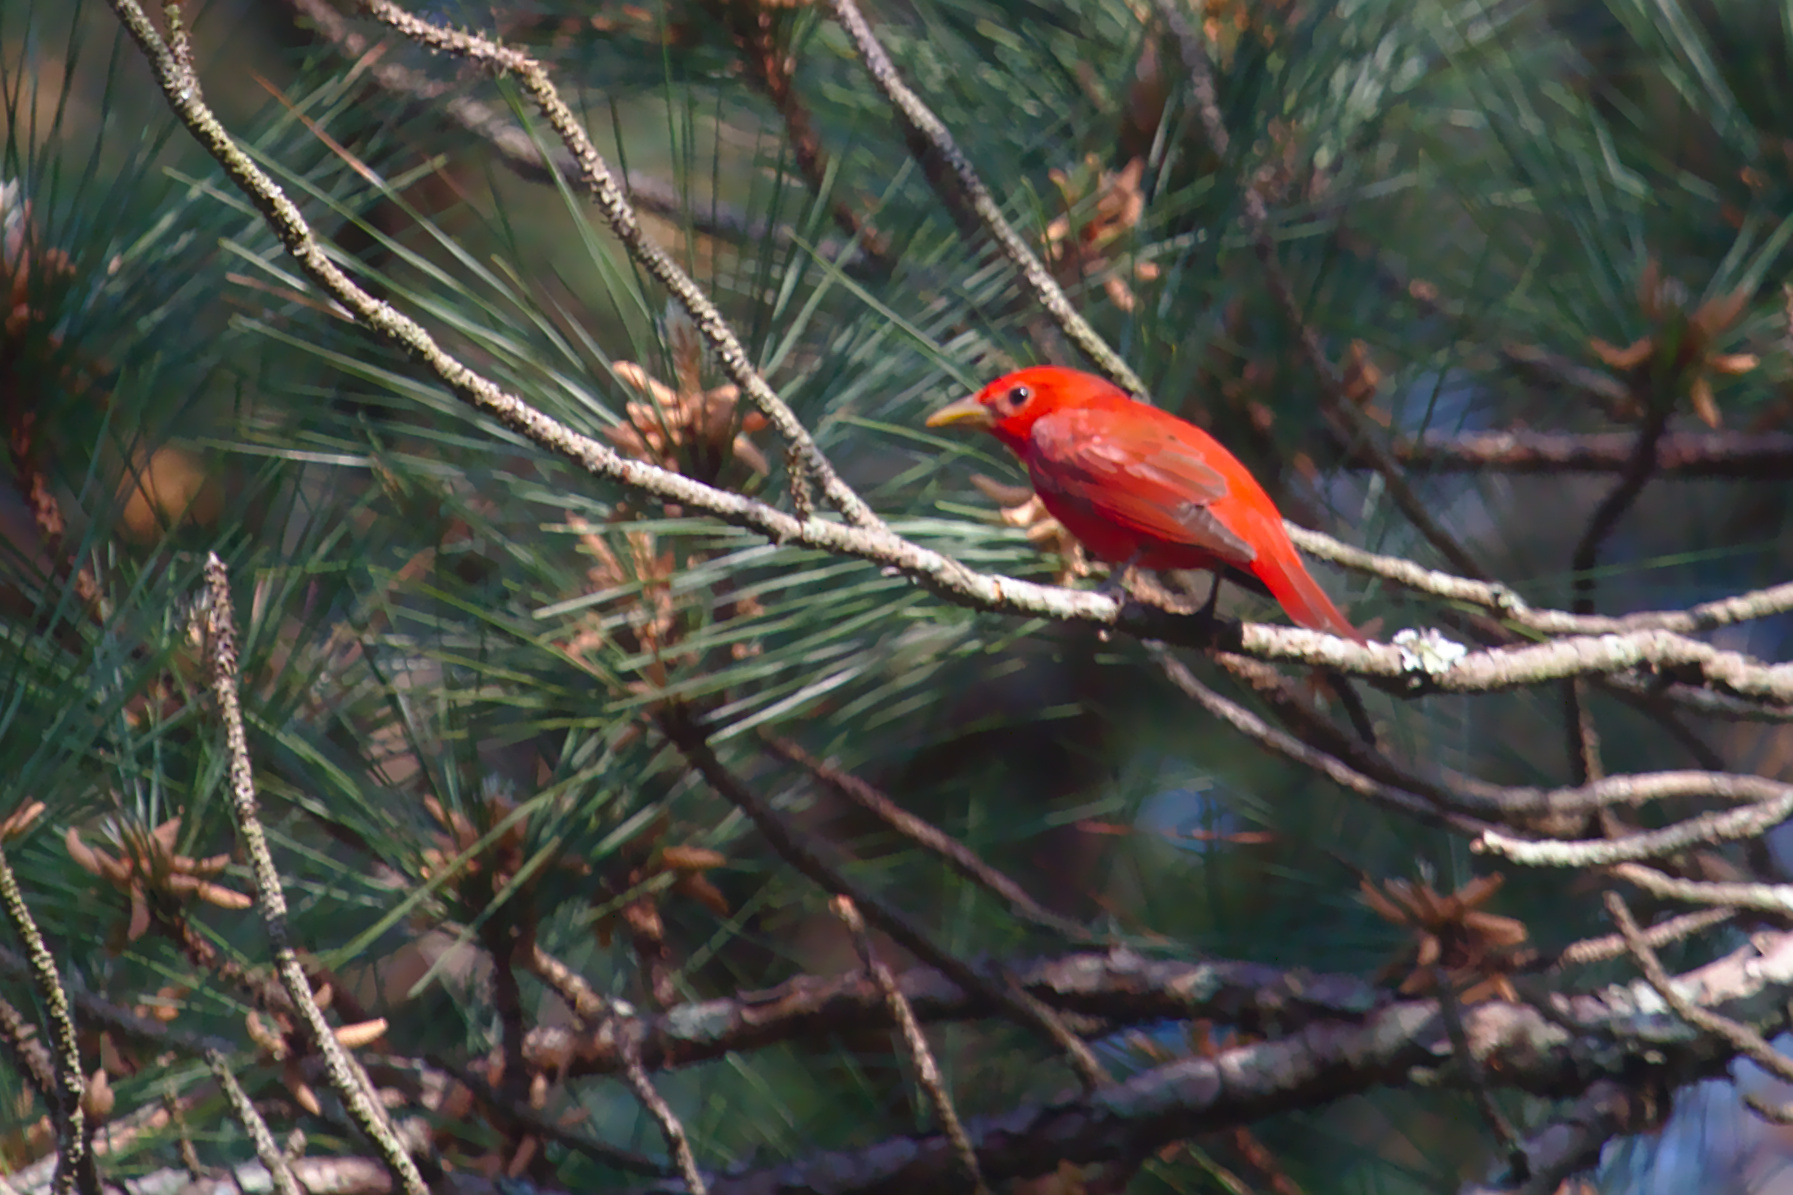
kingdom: Animalia
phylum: Chordata
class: Aves
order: Passeriformes
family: Cardinalidae
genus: Piranga
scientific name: Piranga rubra
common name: Summer tanager
